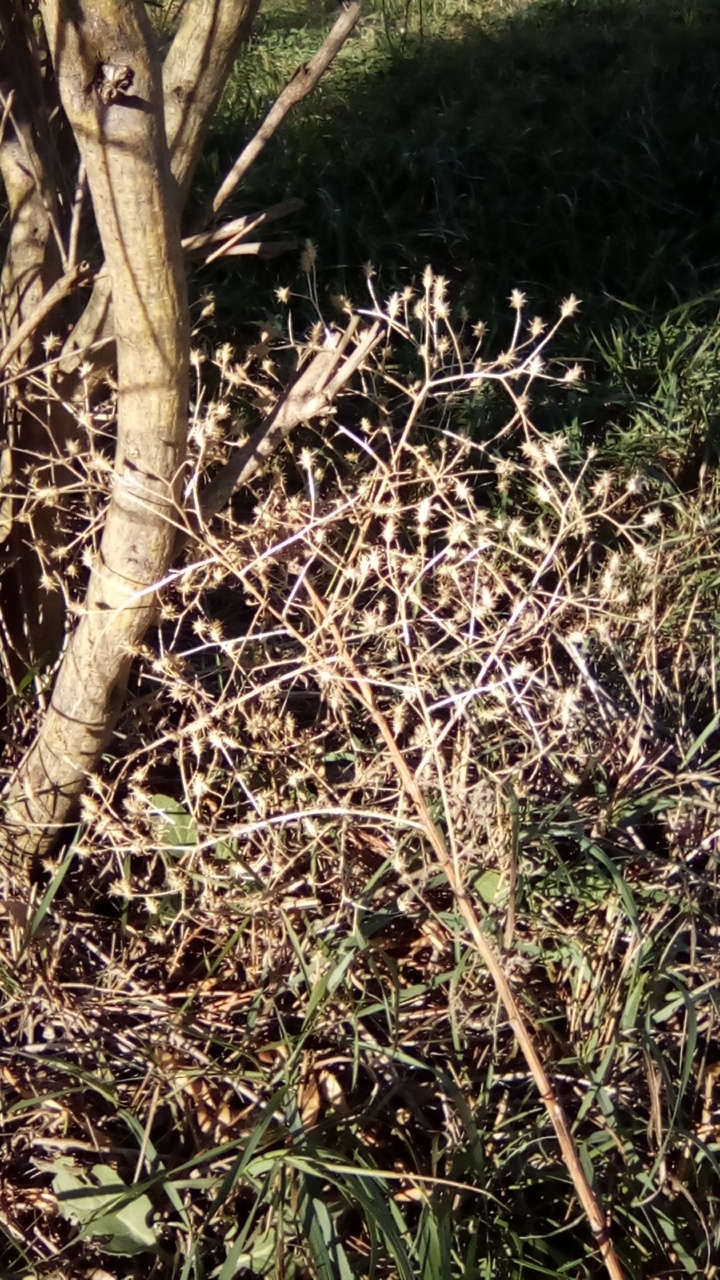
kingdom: Plantae
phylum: Tracheophyta
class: Magnoliopsida
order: Asterales
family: Asteraceae
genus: Centaurea
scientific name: Centaurea diffusa
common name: Diffuse knapweed
